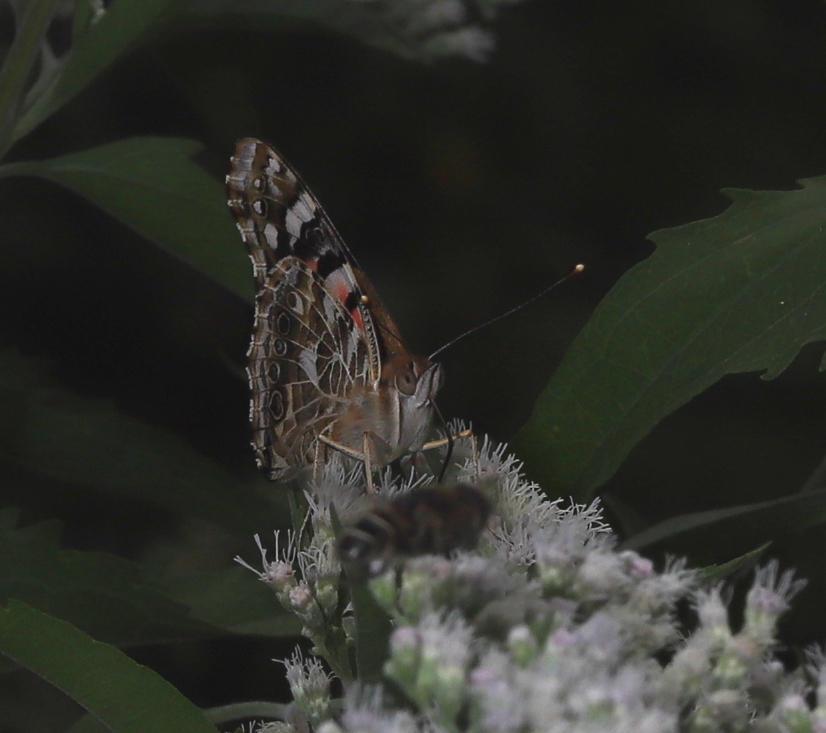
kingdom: Animalia
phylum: Arthropoda
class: Insecta
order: Lepidoptera
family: Nymphalidae
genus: Vanessa
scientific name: Vanessa cardui
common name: Painted lady
